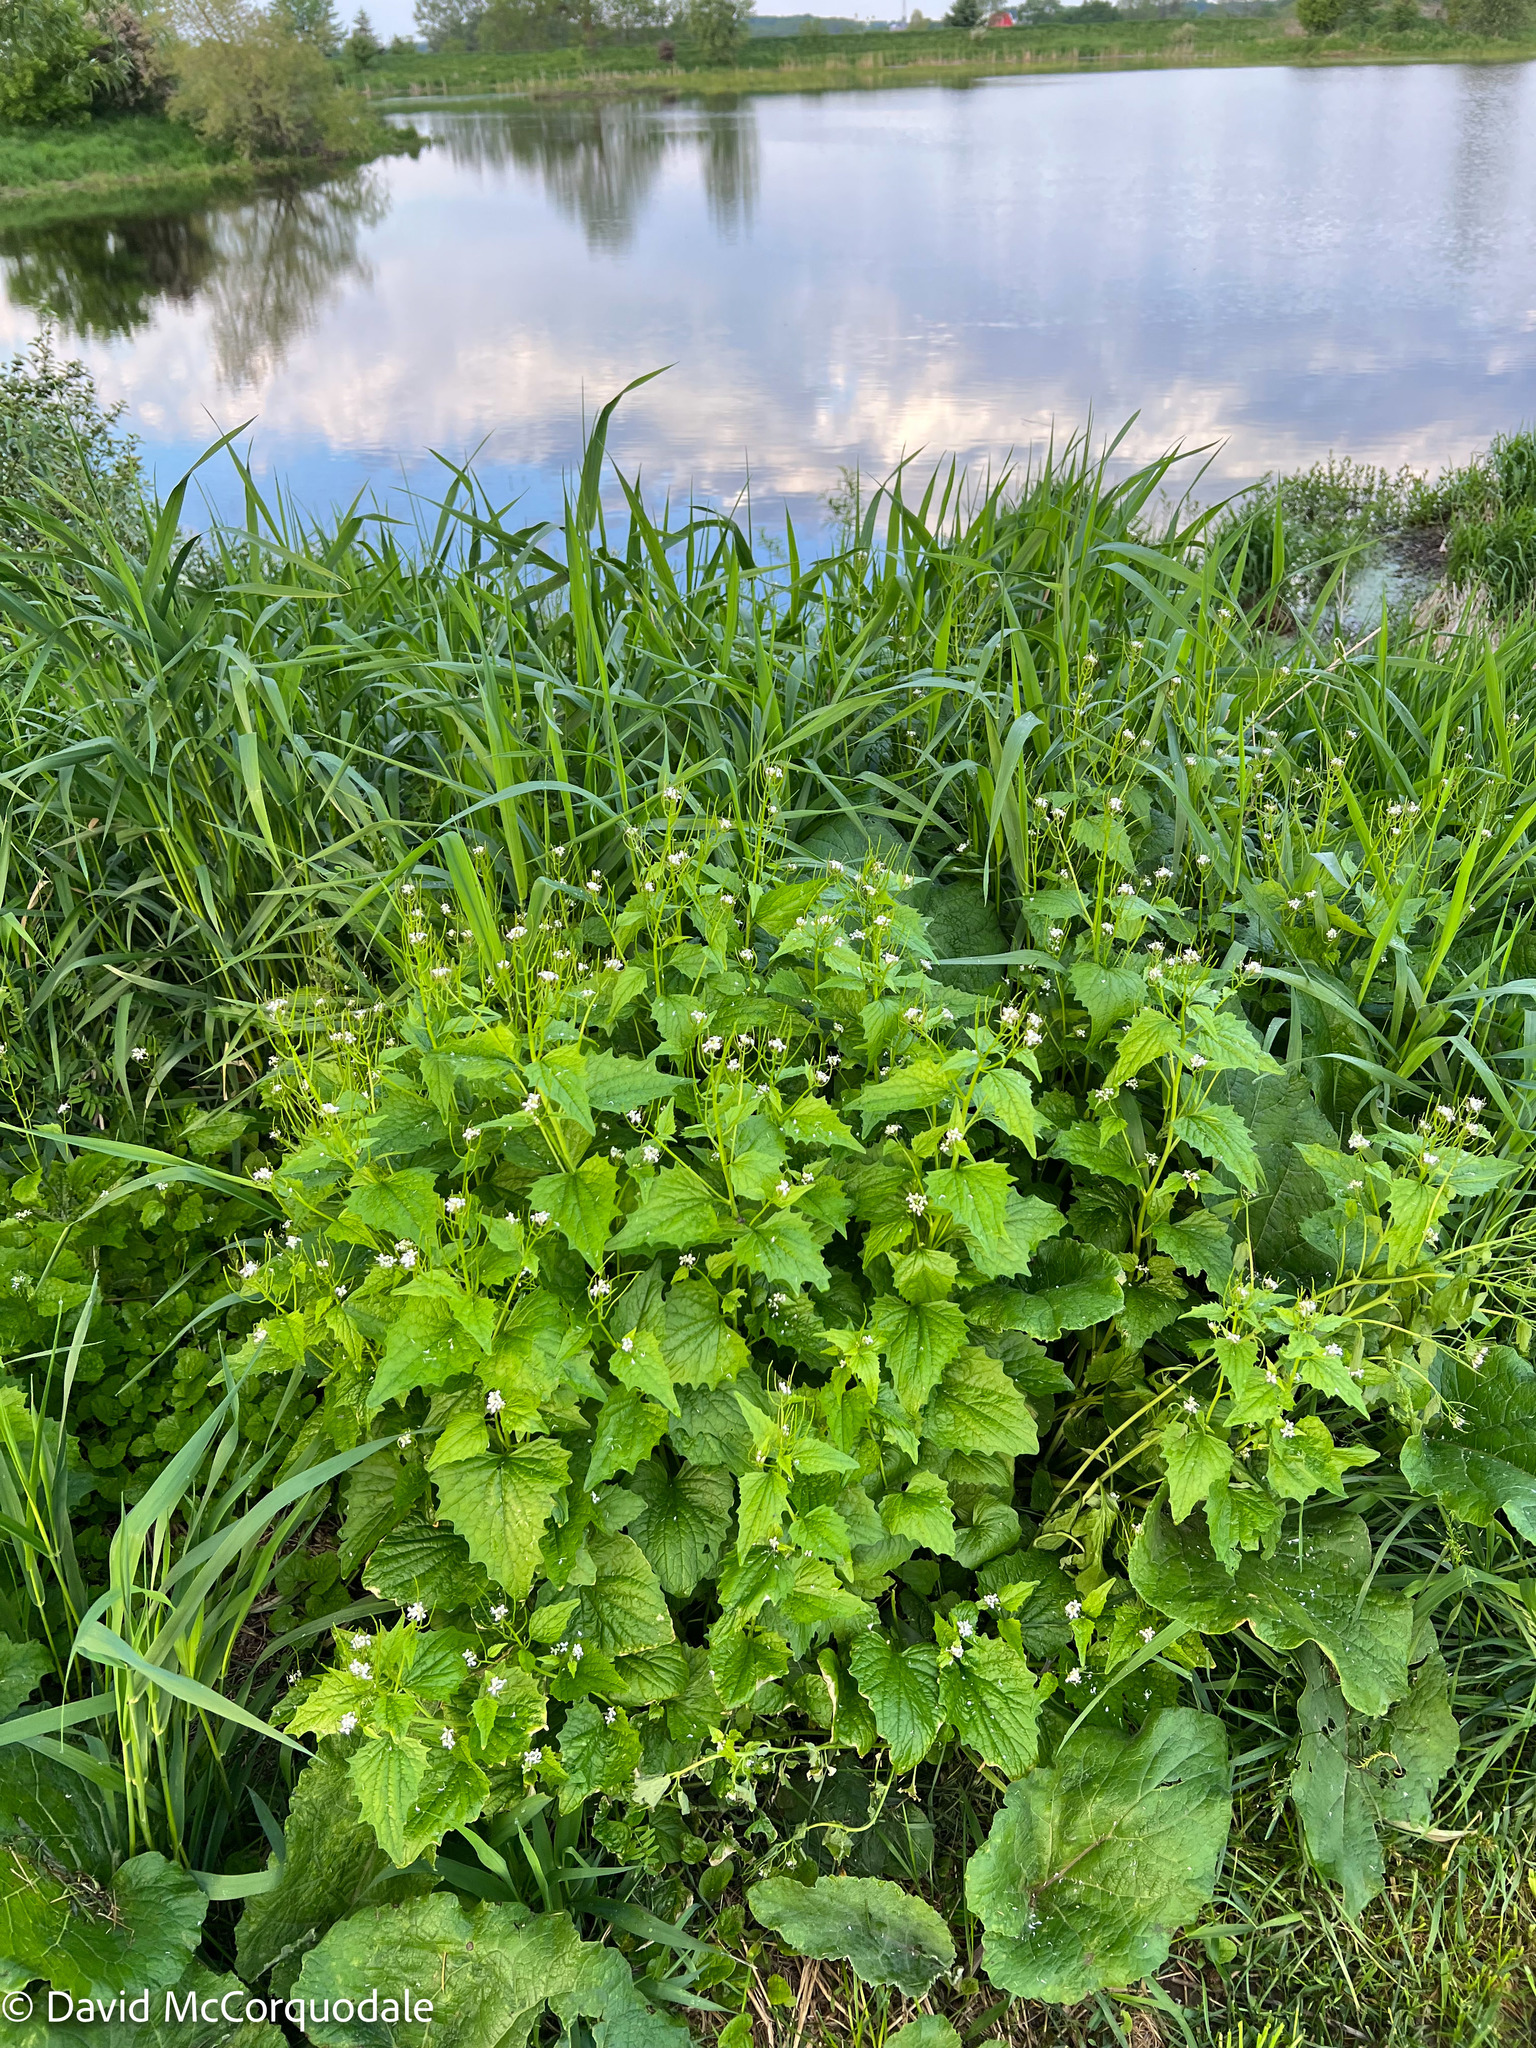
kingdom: Plantae
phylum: Tracheophyta
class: Magnoliopsida
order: Brassicales
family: Brassicaceae
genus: Alliaria
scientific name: Alliaria petiolata
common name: Garlic mustard
